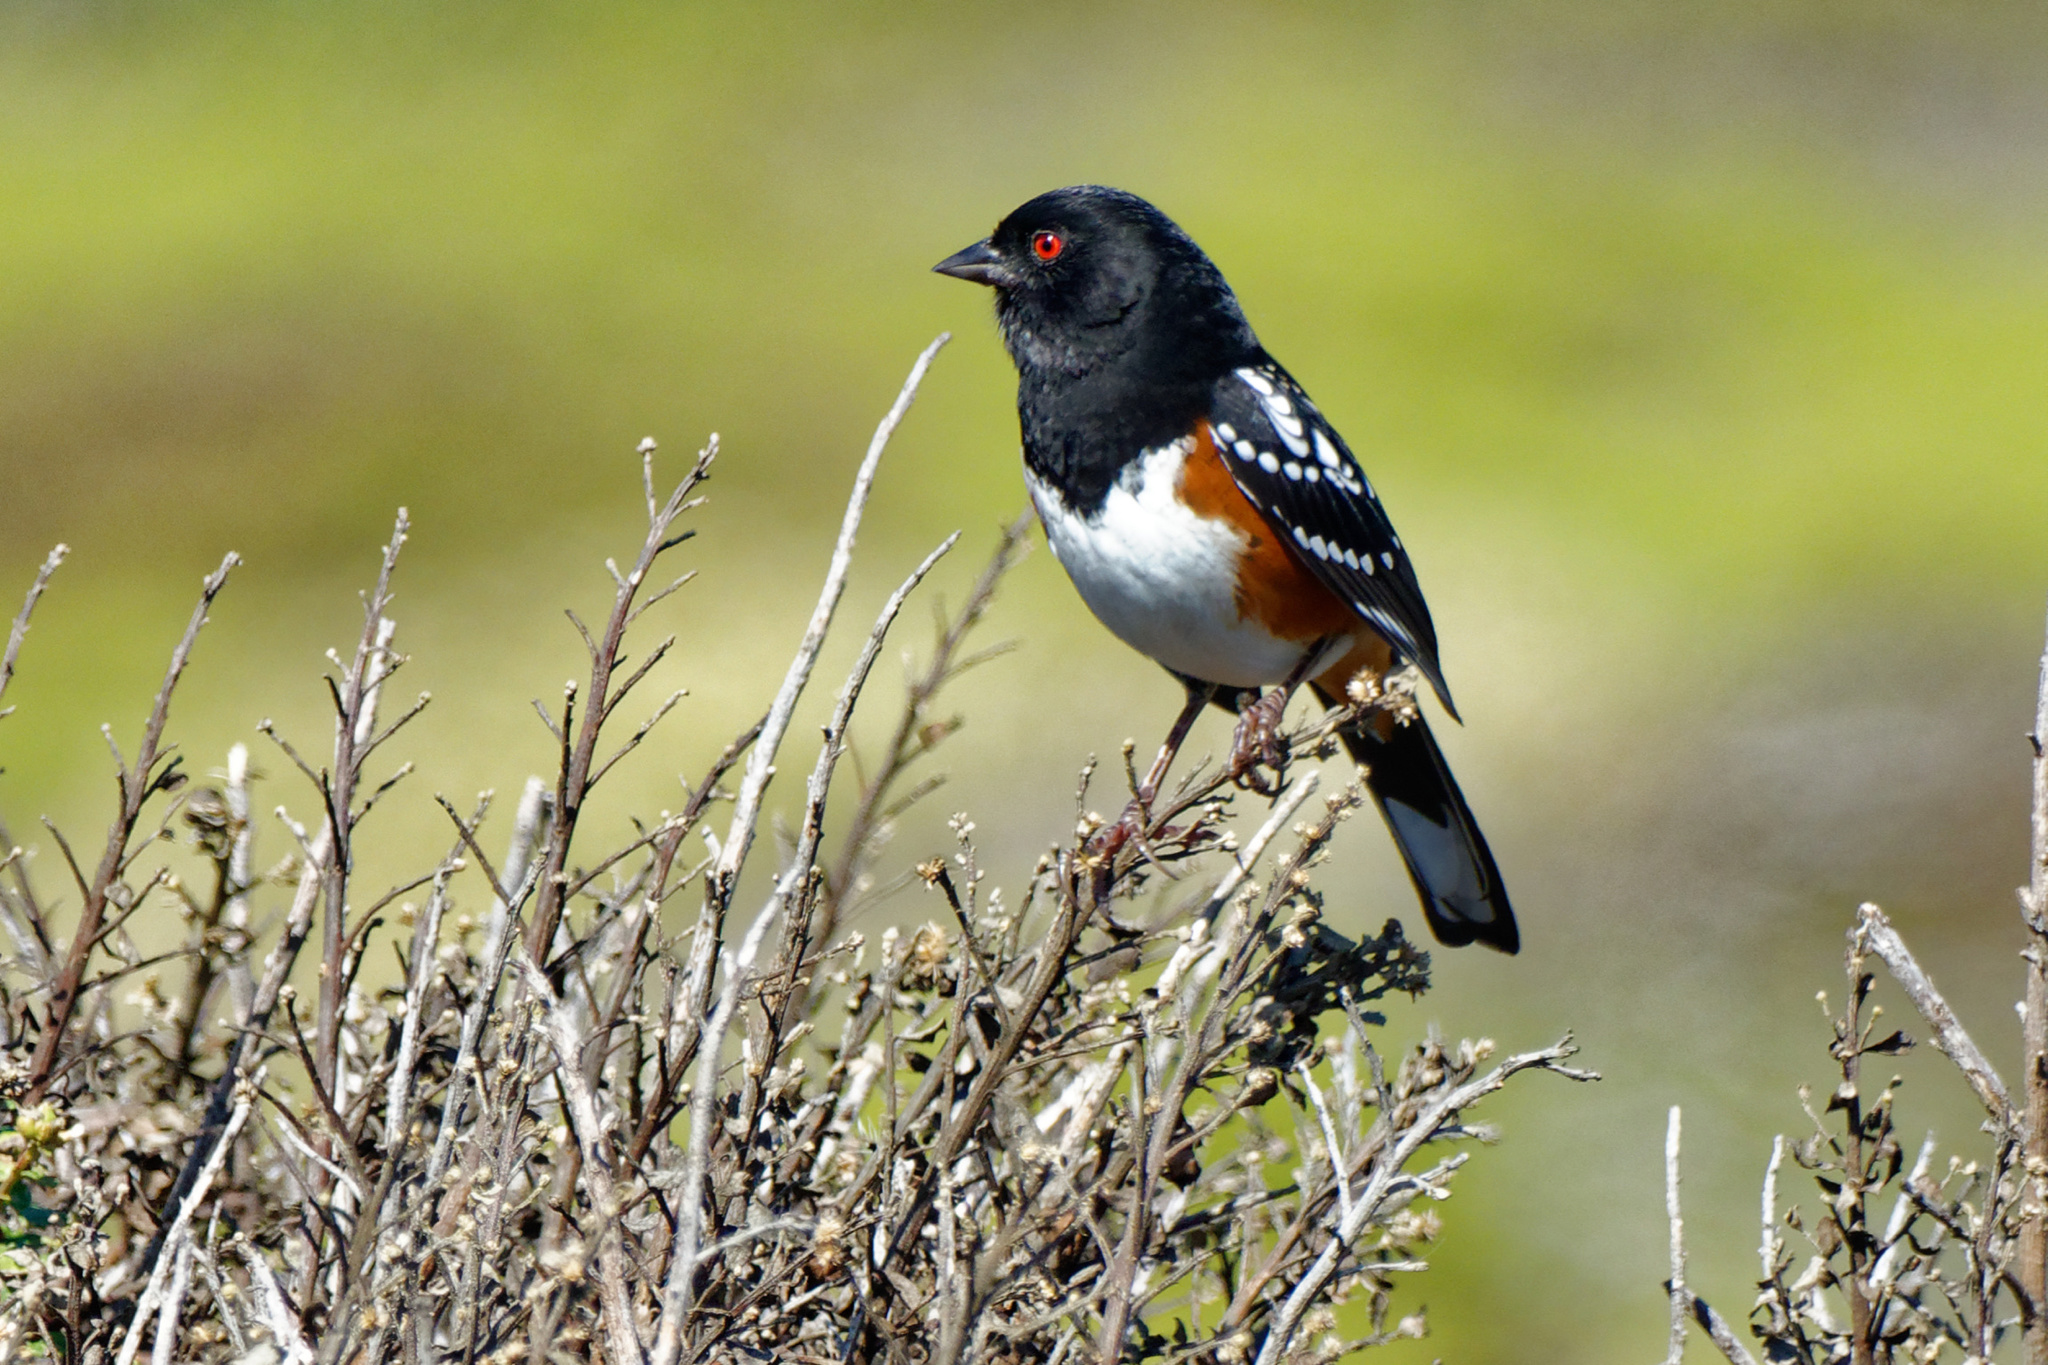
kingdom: Animalia
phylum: Chordata
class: Aves
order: Passeriformes
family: Passerellidae
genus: Pipilo
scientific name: Pipilo maculatus
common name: Spotted towhee
